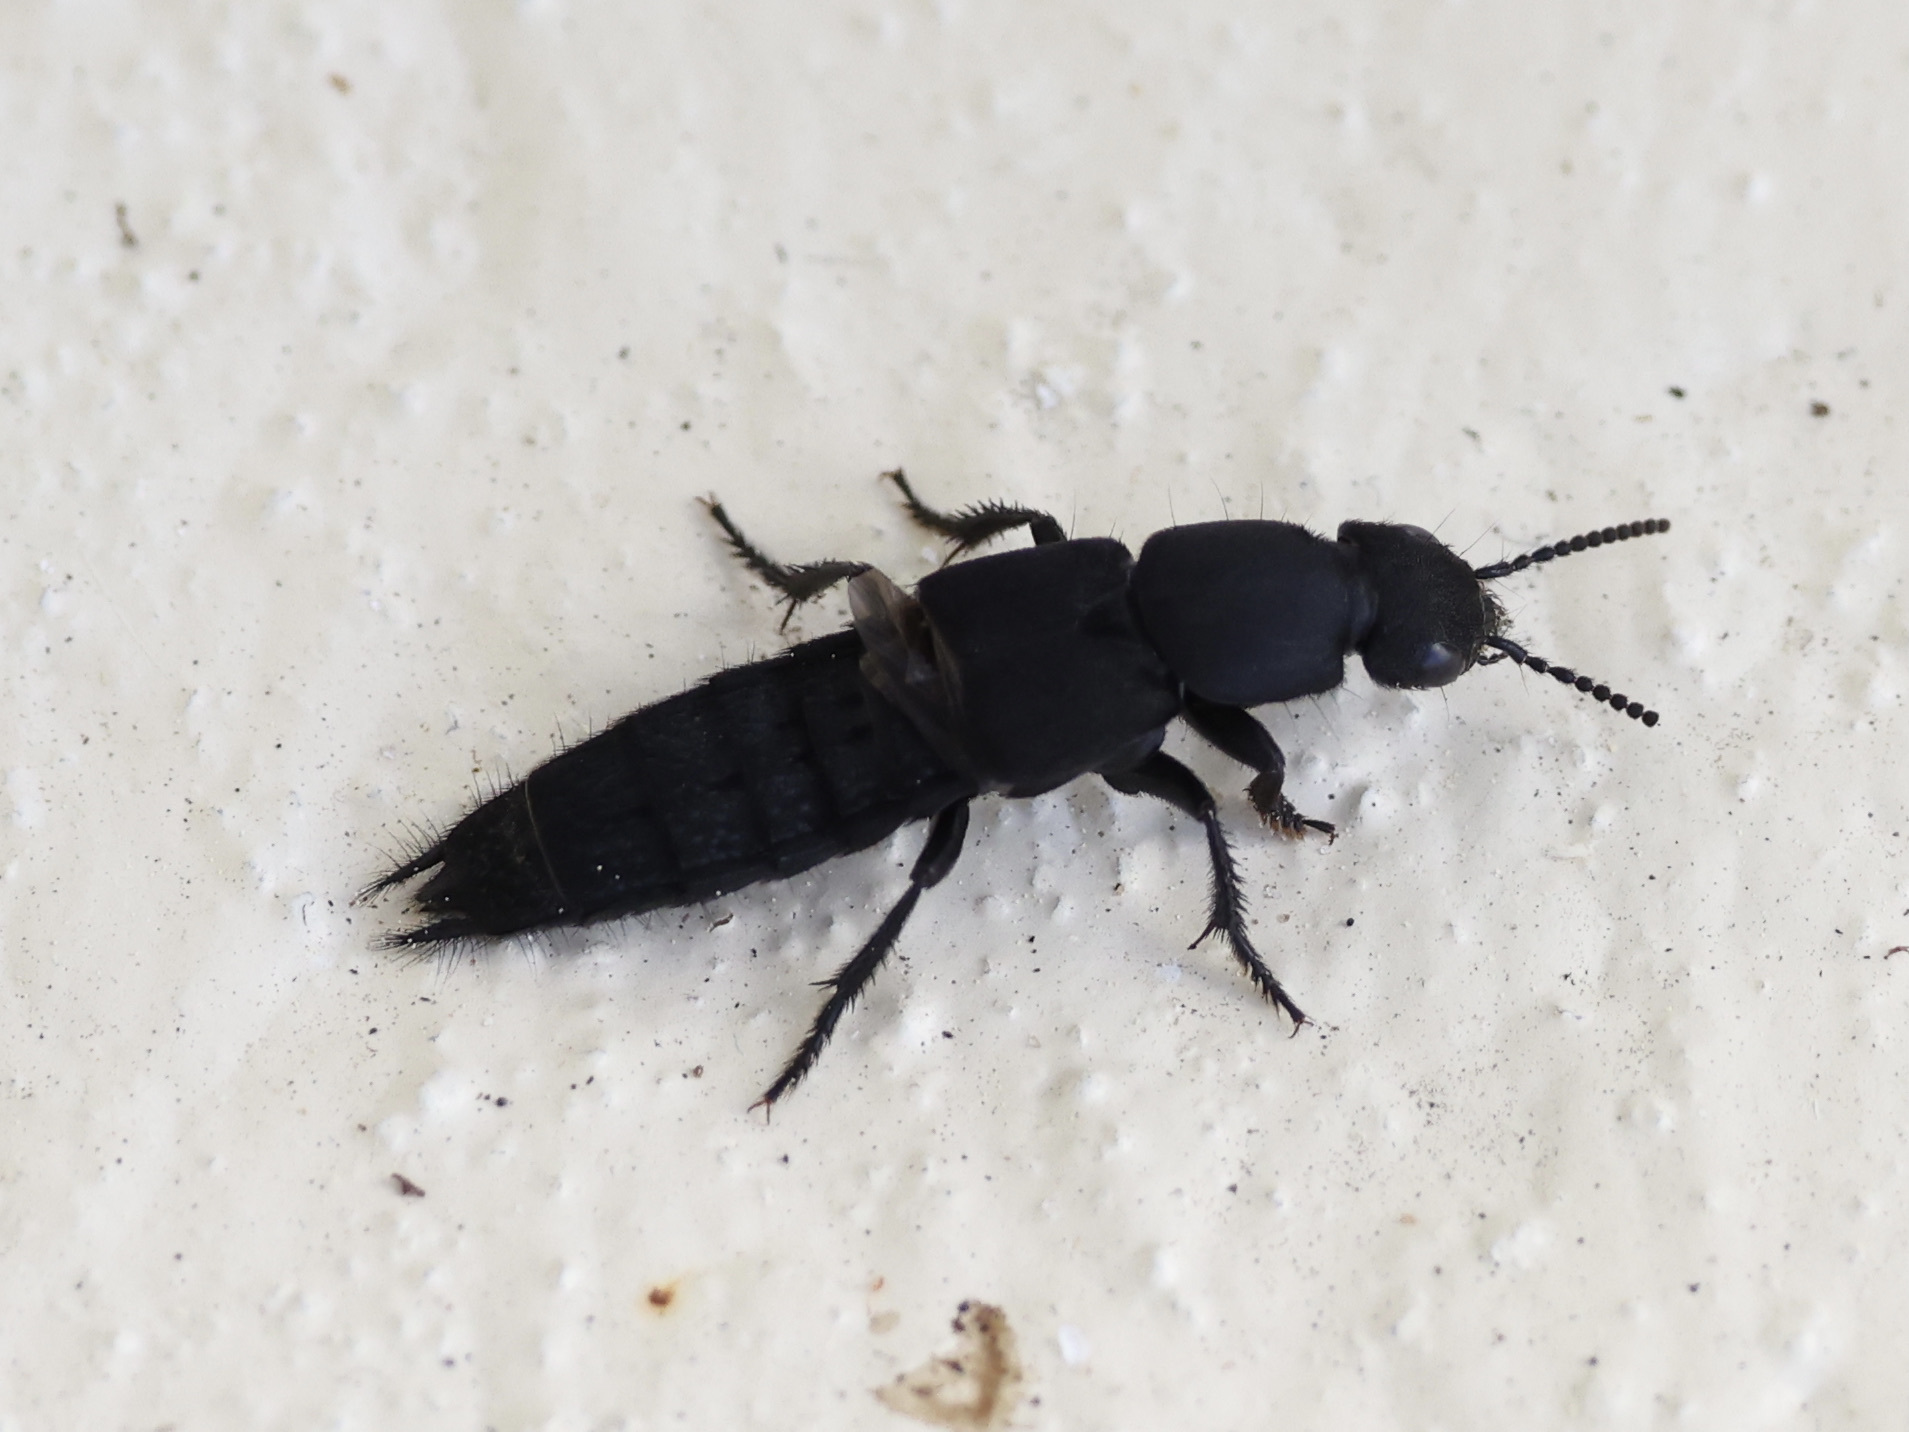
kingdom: Animalia
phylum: Arthropoda
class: Insecta
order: Coleoptera
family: Staphylinidae
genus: Platydracus
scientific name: Platydracus tomentosus
